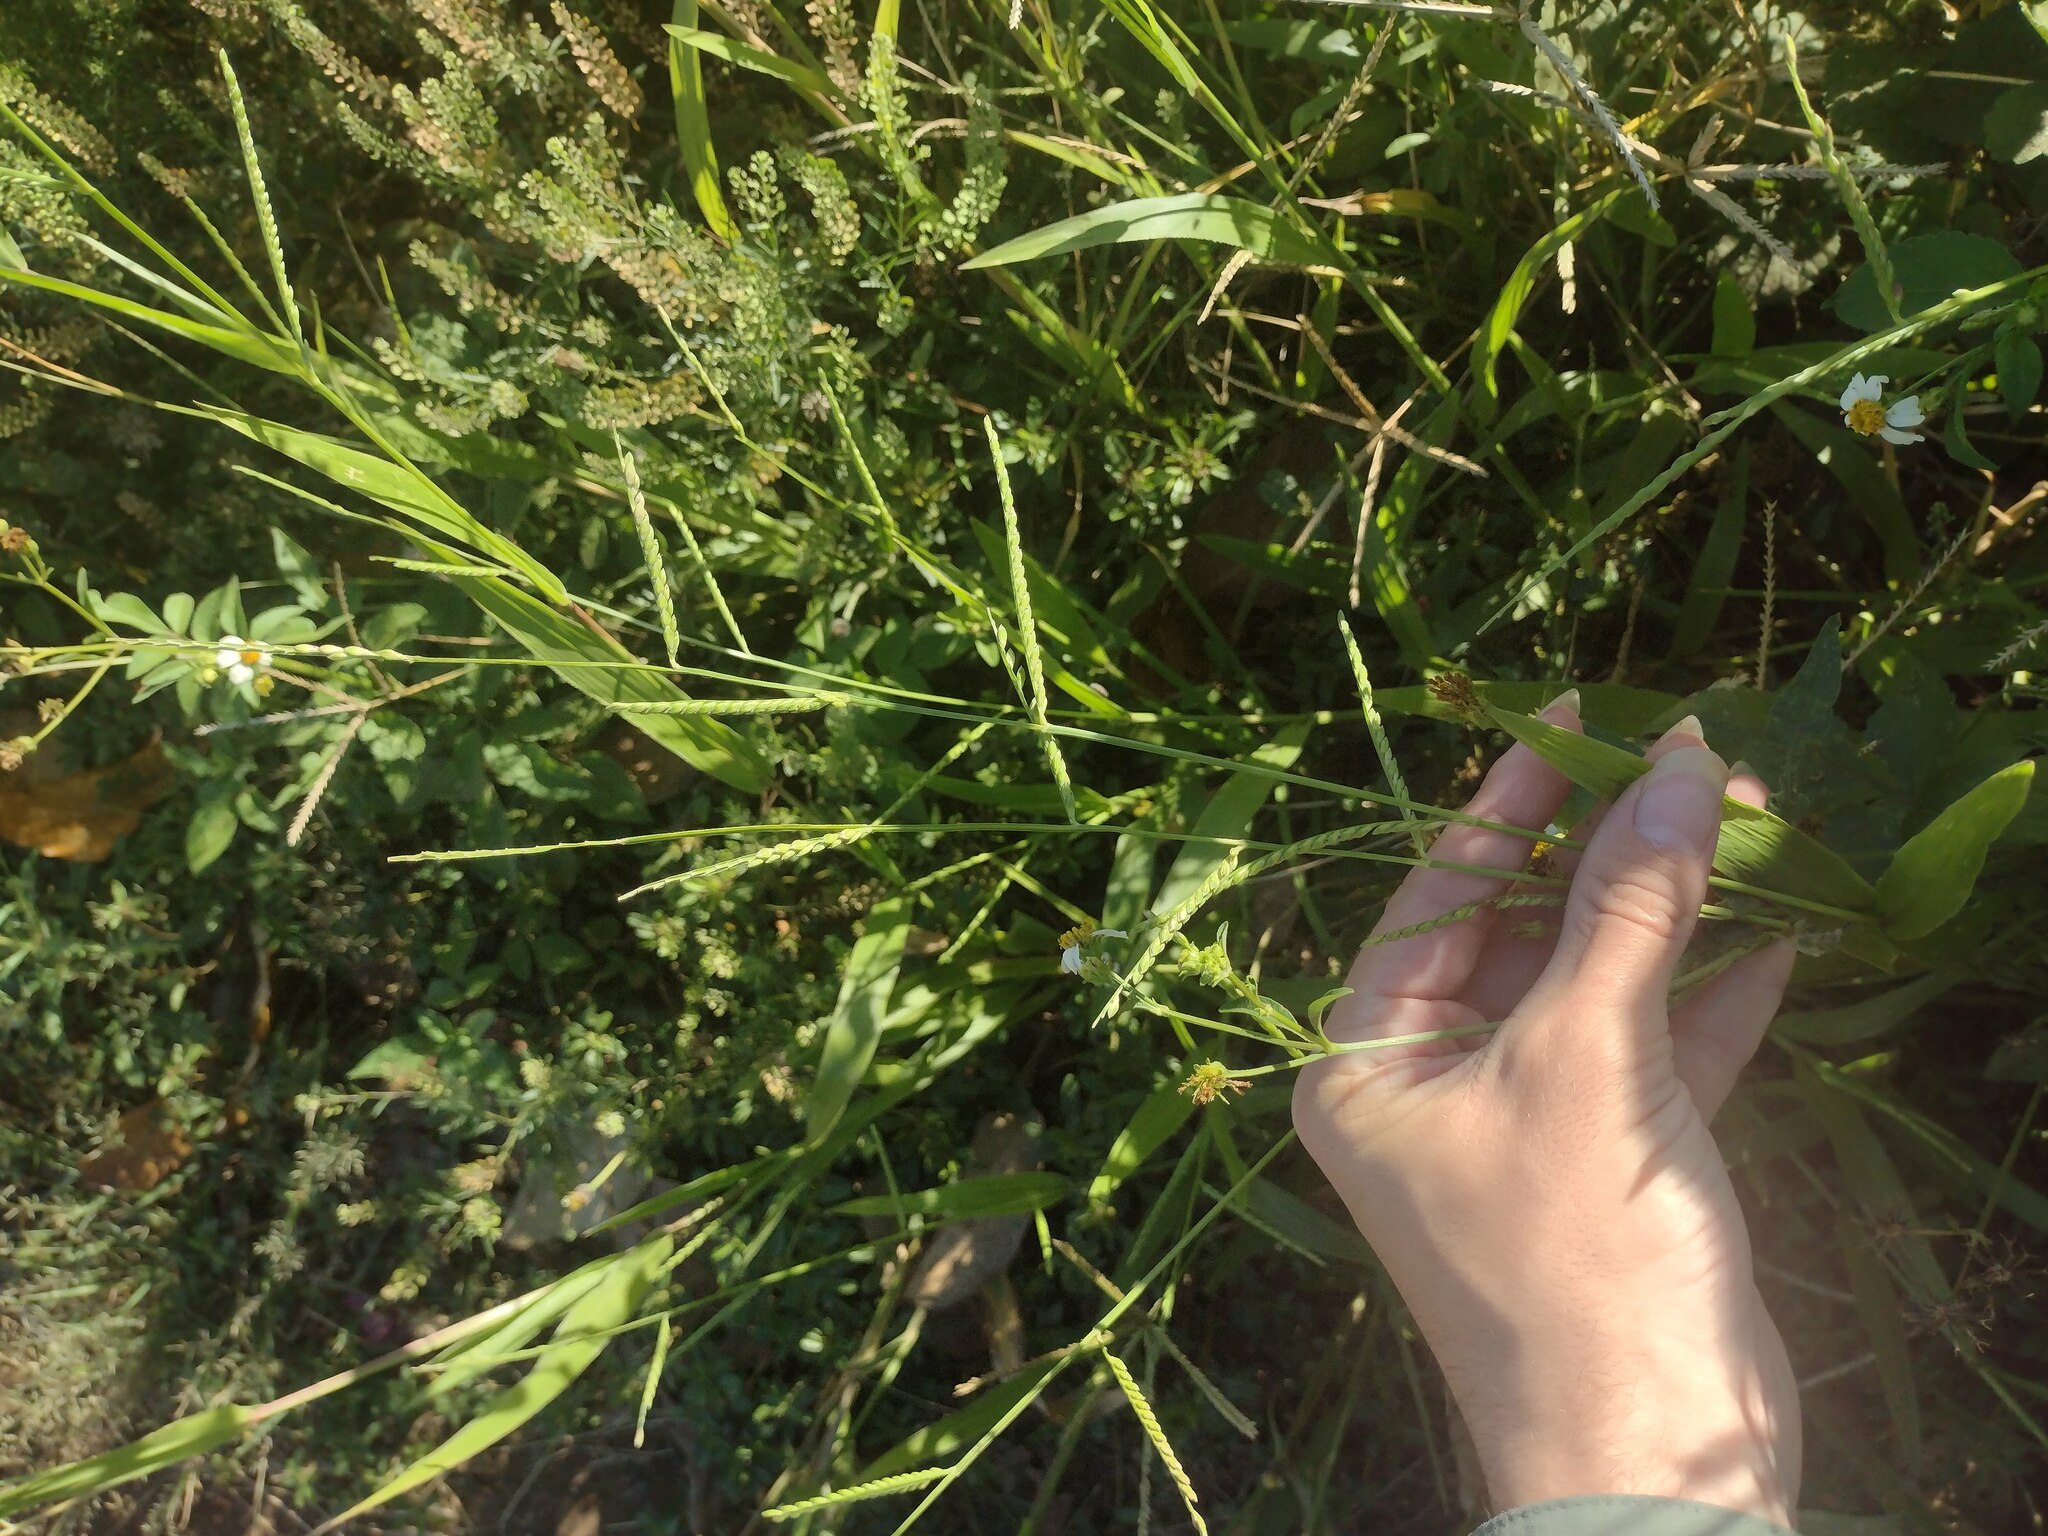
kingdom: Plantae
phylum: Tracheophyta
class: Liliopsida
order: Poales
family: Poaceae
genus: Urochloa
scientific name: Urochloa plantaginea
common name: Plantain signalgrass
